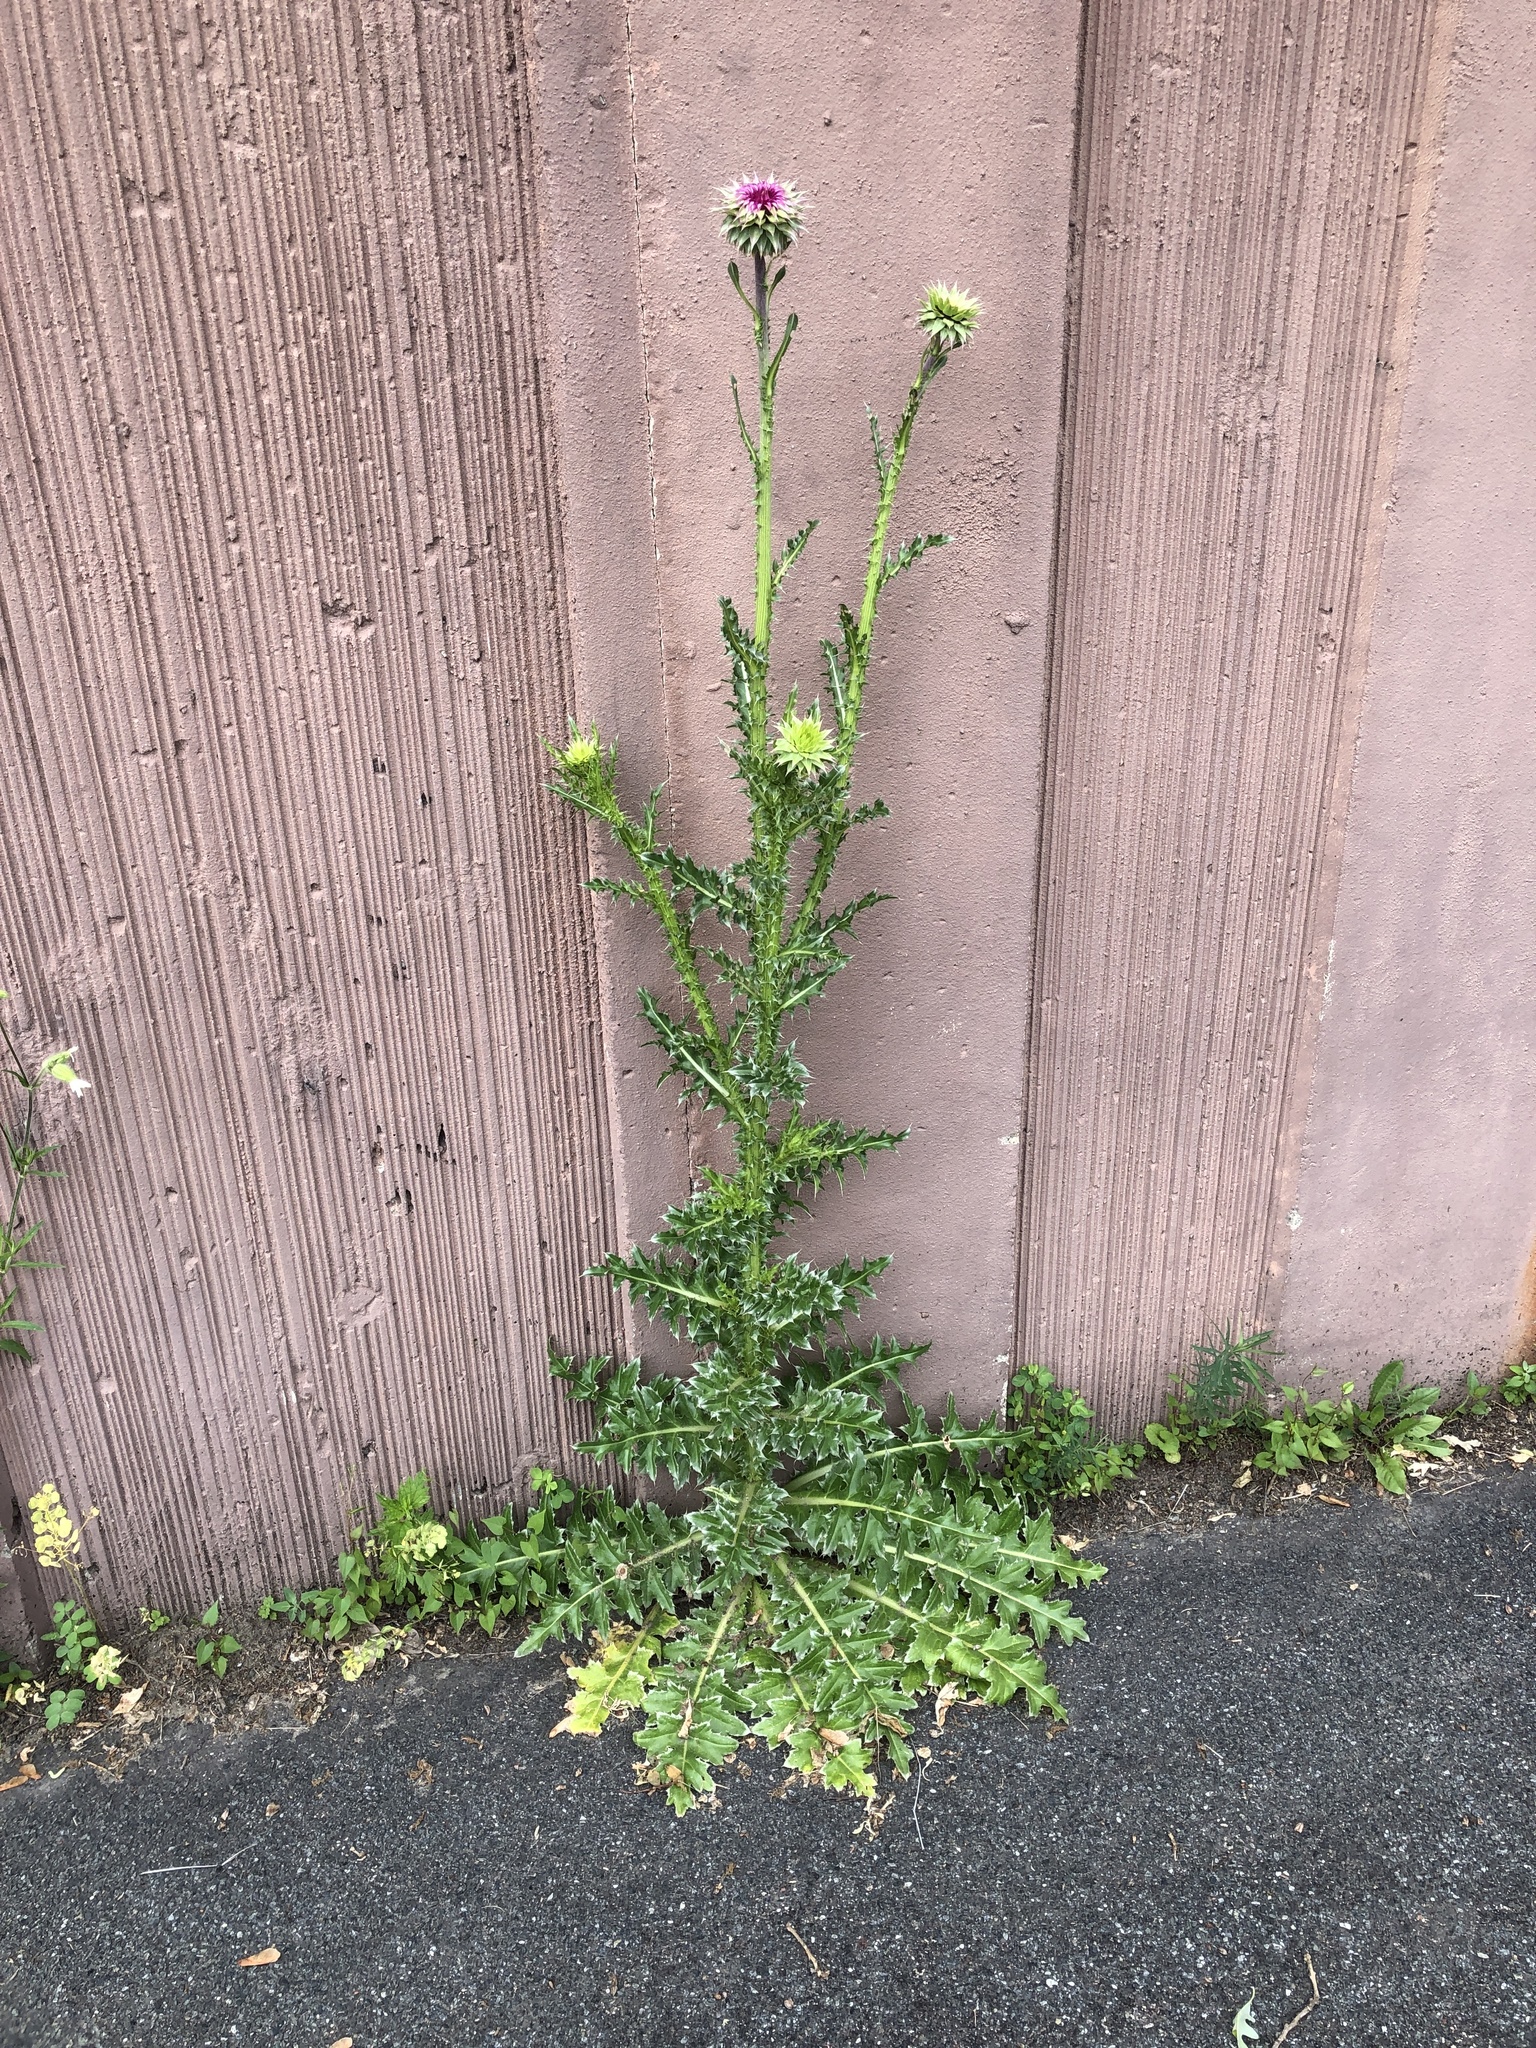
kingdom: Plantae
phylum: Tracheophyta
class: Magnoliopsida
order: Asterales
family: Asteraceae
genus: Carduus
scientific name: Carduus nutans
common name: Musk thistle
